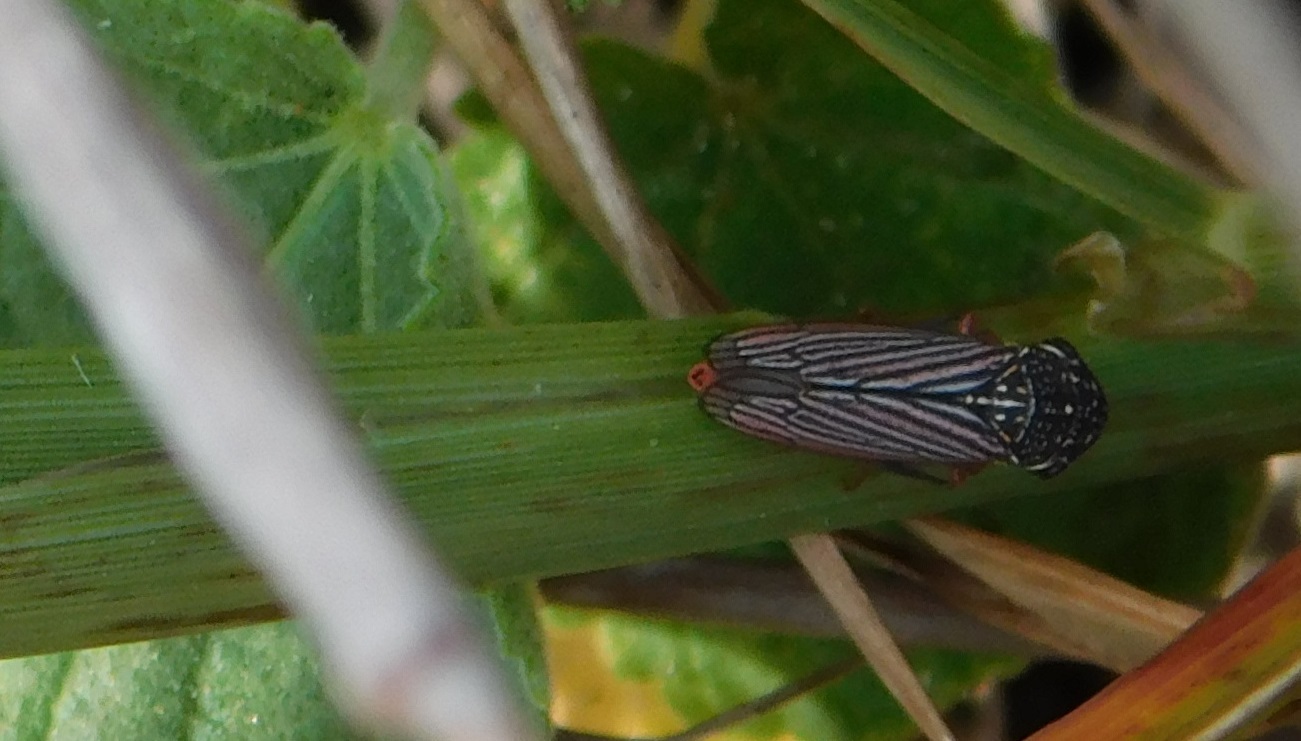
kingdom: Animalia
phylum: Arthropoda
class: Insecta
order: Hemiptera
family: Cicadellidae
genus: Cuerna
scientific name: Cuerna costalis
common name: Lateral-lined sharpshooter
